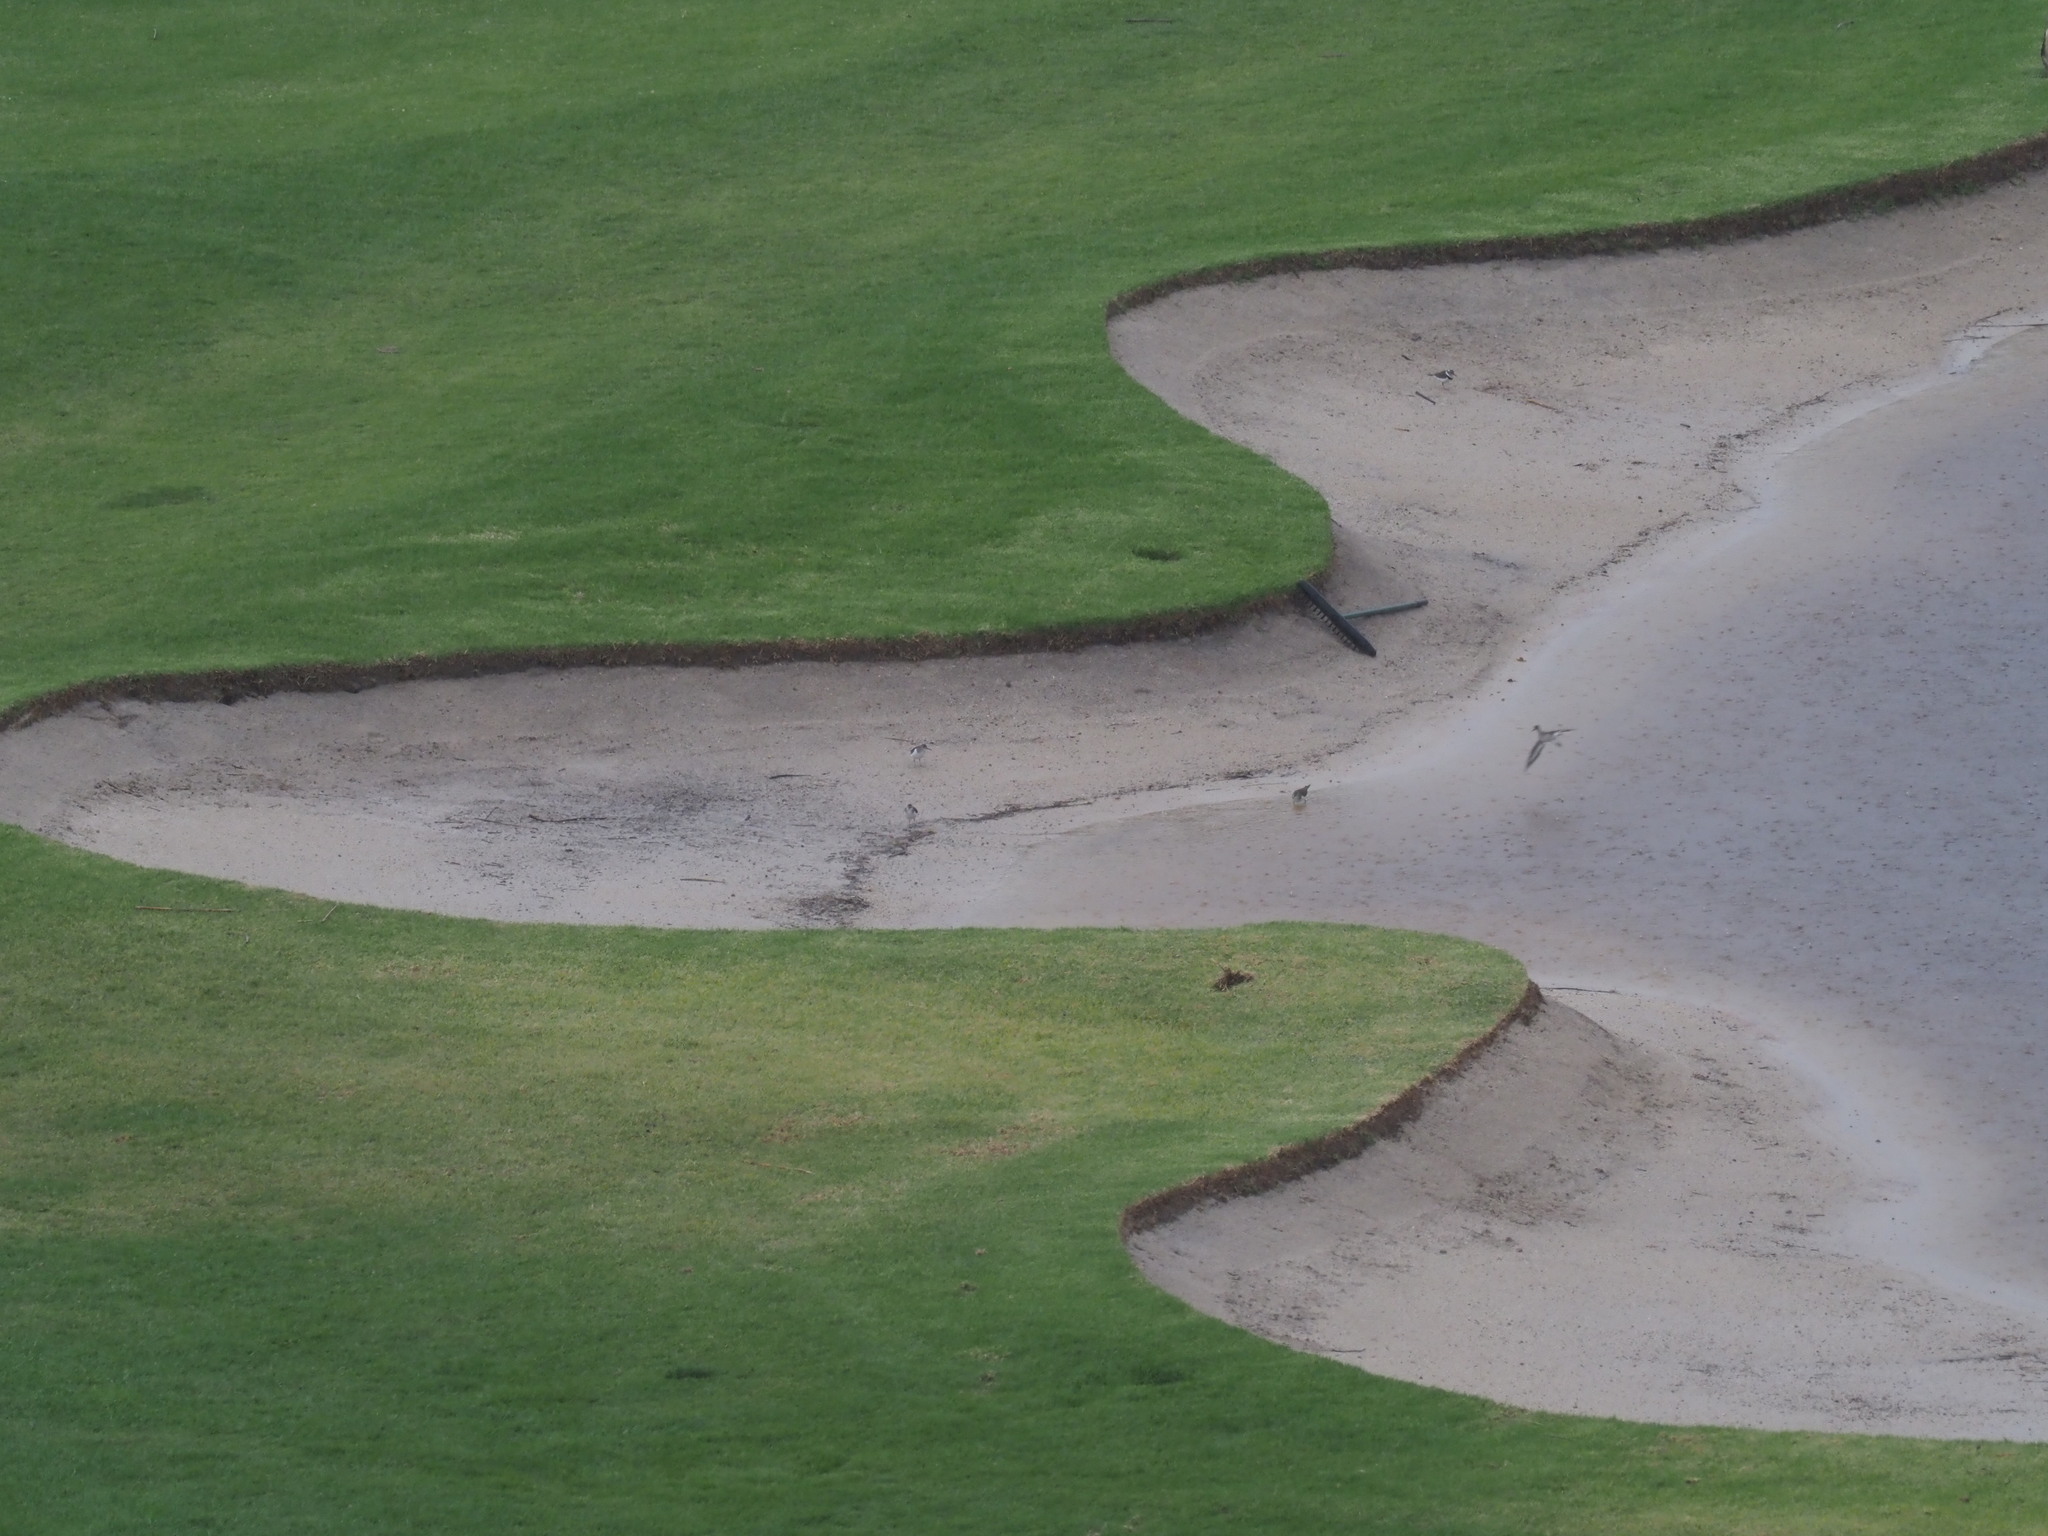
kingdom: Animalia
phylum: Chordata
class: Aves
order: Charadriiformes
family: Scolopacidae
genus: Actitis
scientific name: Actitis hypoleucos
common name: Common sandpiper
